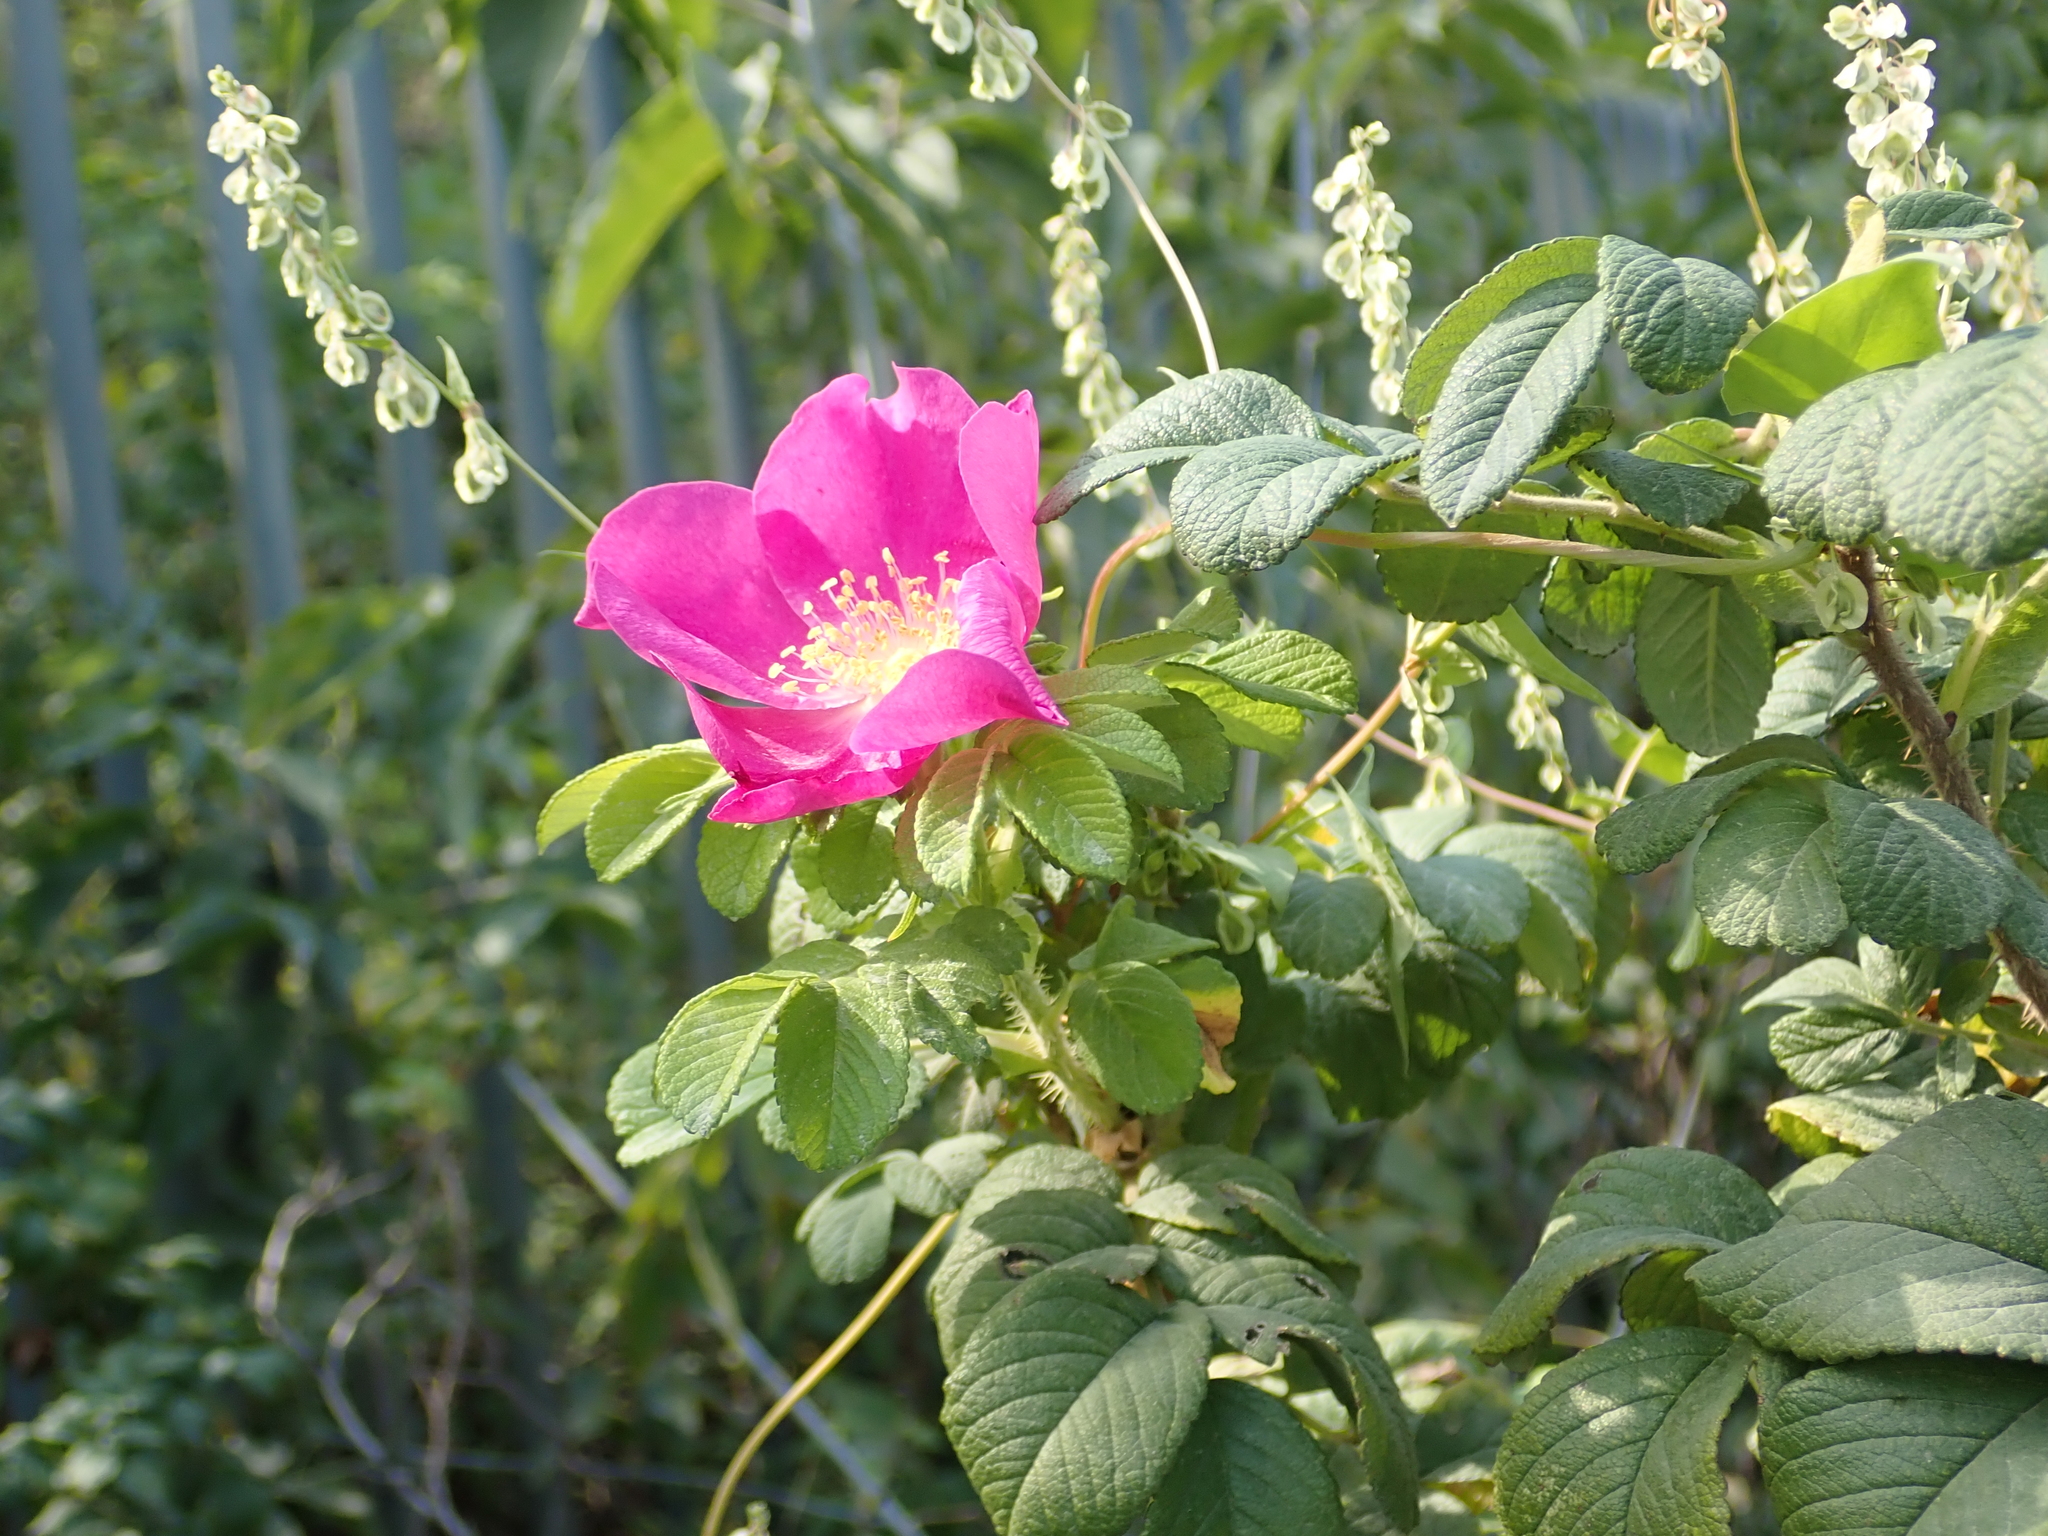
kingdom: Plantae
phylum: Tracheophyta
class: Magnoliopsida
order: Rosales
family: Rosaceae
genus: Rosa
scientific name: Rosa rugosa
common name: Japanese rose
